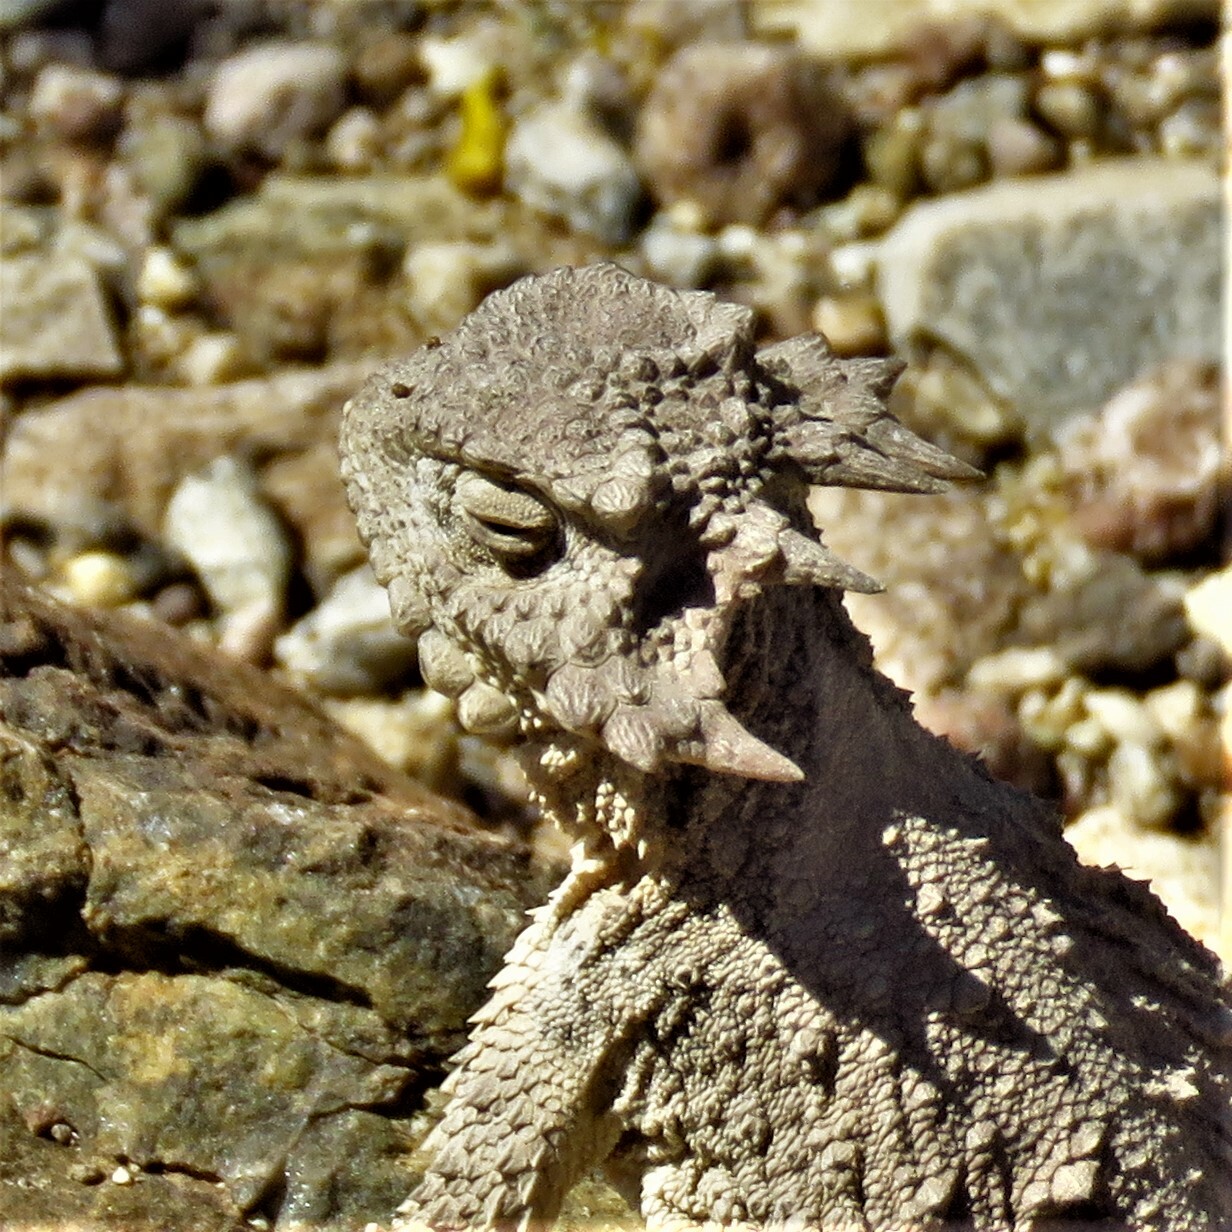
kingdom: Animalia
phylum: Chordata
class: Squamata
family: Phrynosomatidae
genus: Phrynosoma
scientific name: Phrynosoma modestum
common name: Roundtail horned lizard
